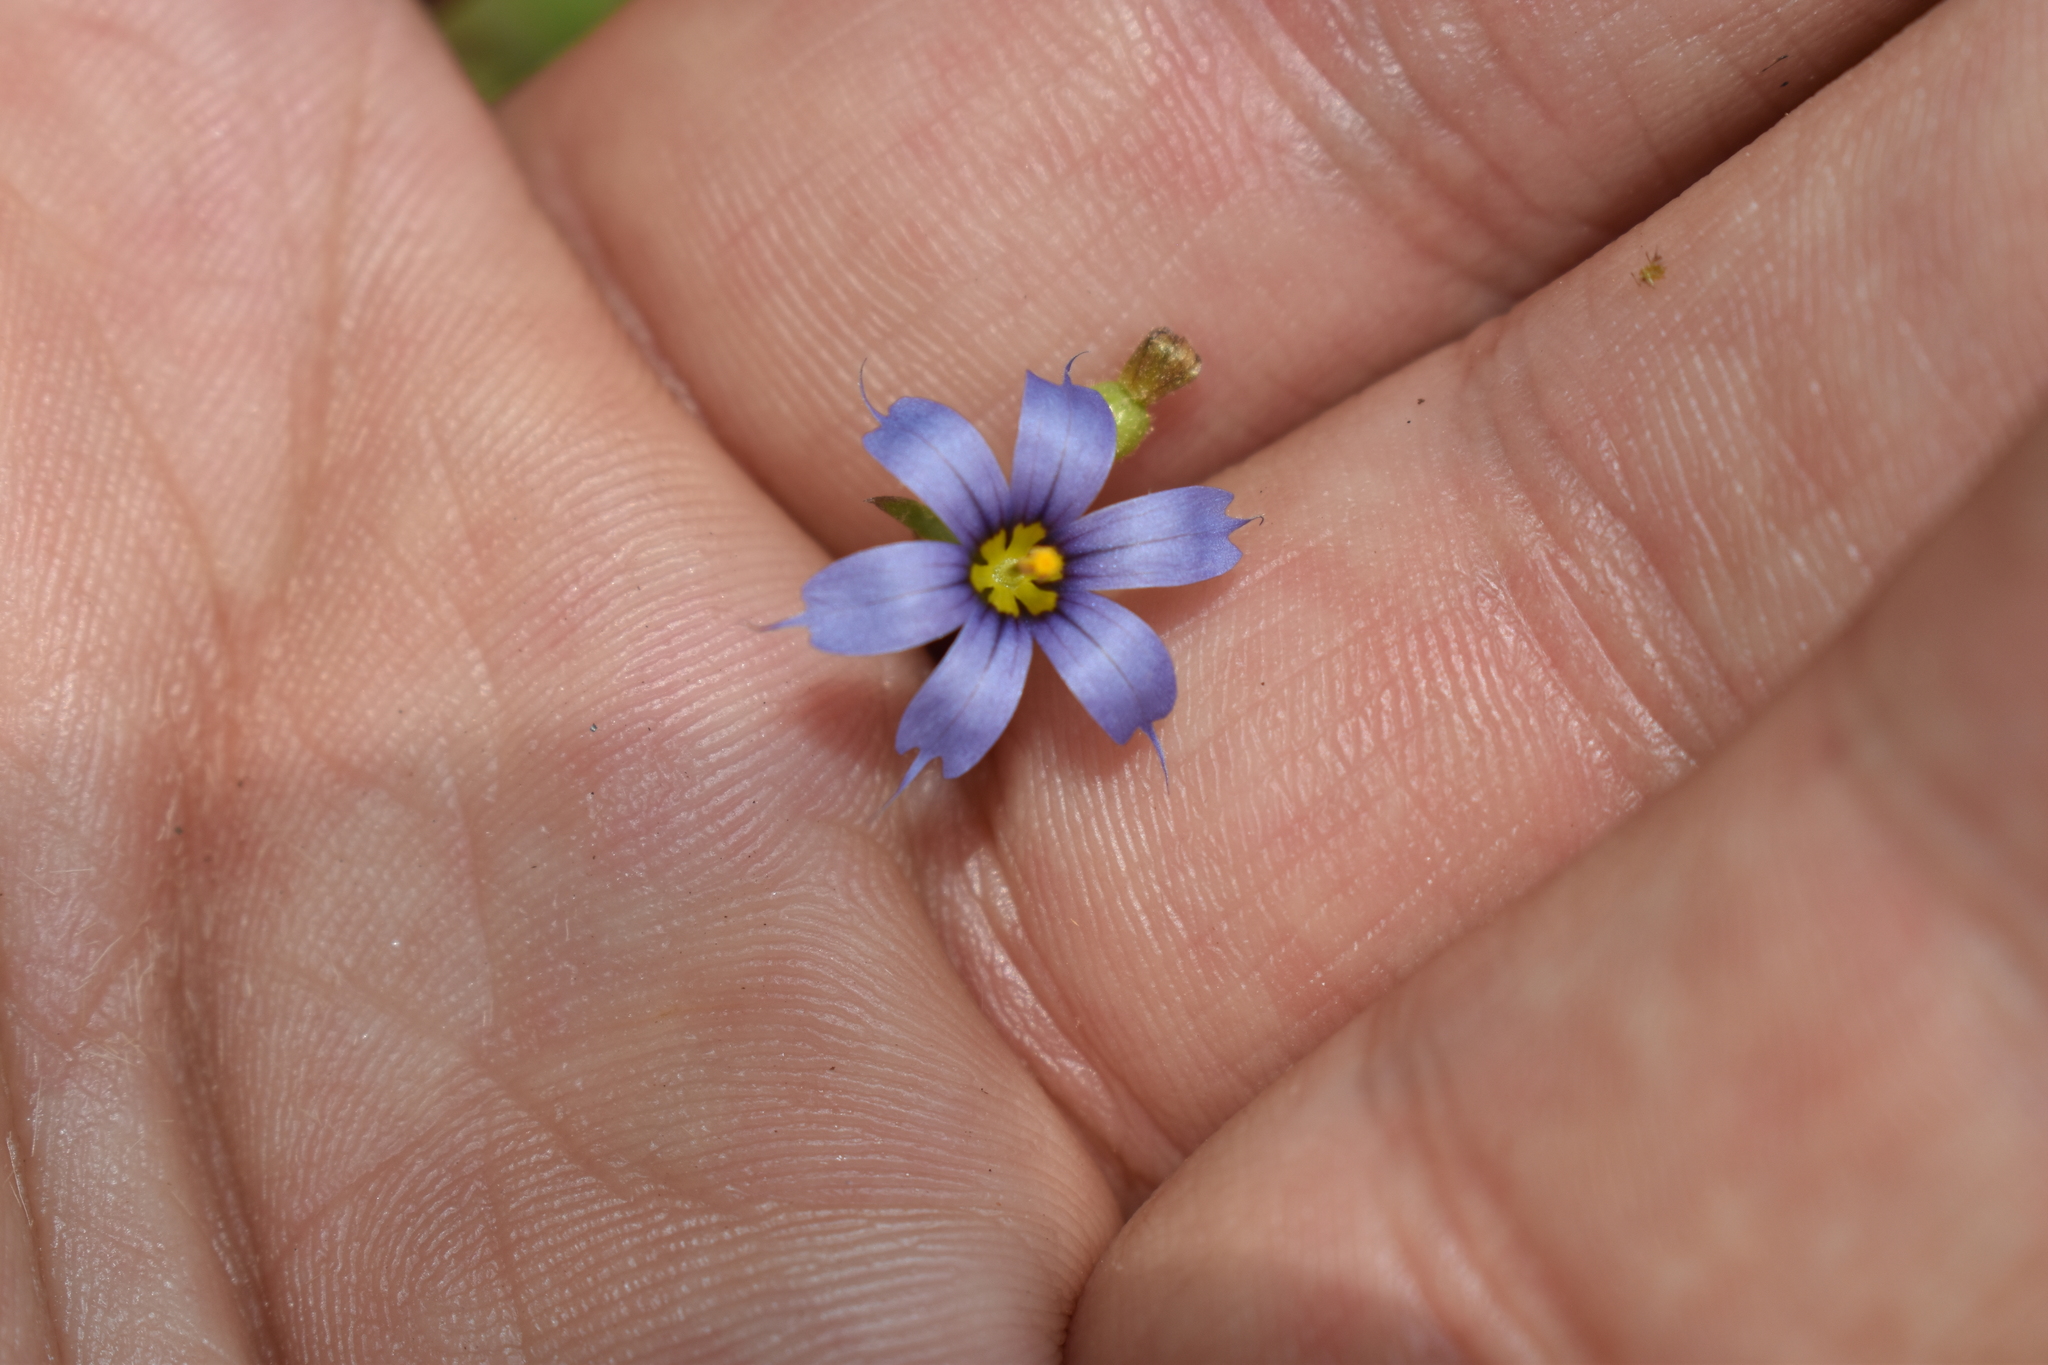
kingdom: Plantae
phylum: Tracheophyta
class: Liliopsida
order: Asparagales
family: Iridaceae
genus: Sisyrinchium
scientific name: Sisyrinchium angustifolium
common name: Narrow-leaf blue-eyed-grass
